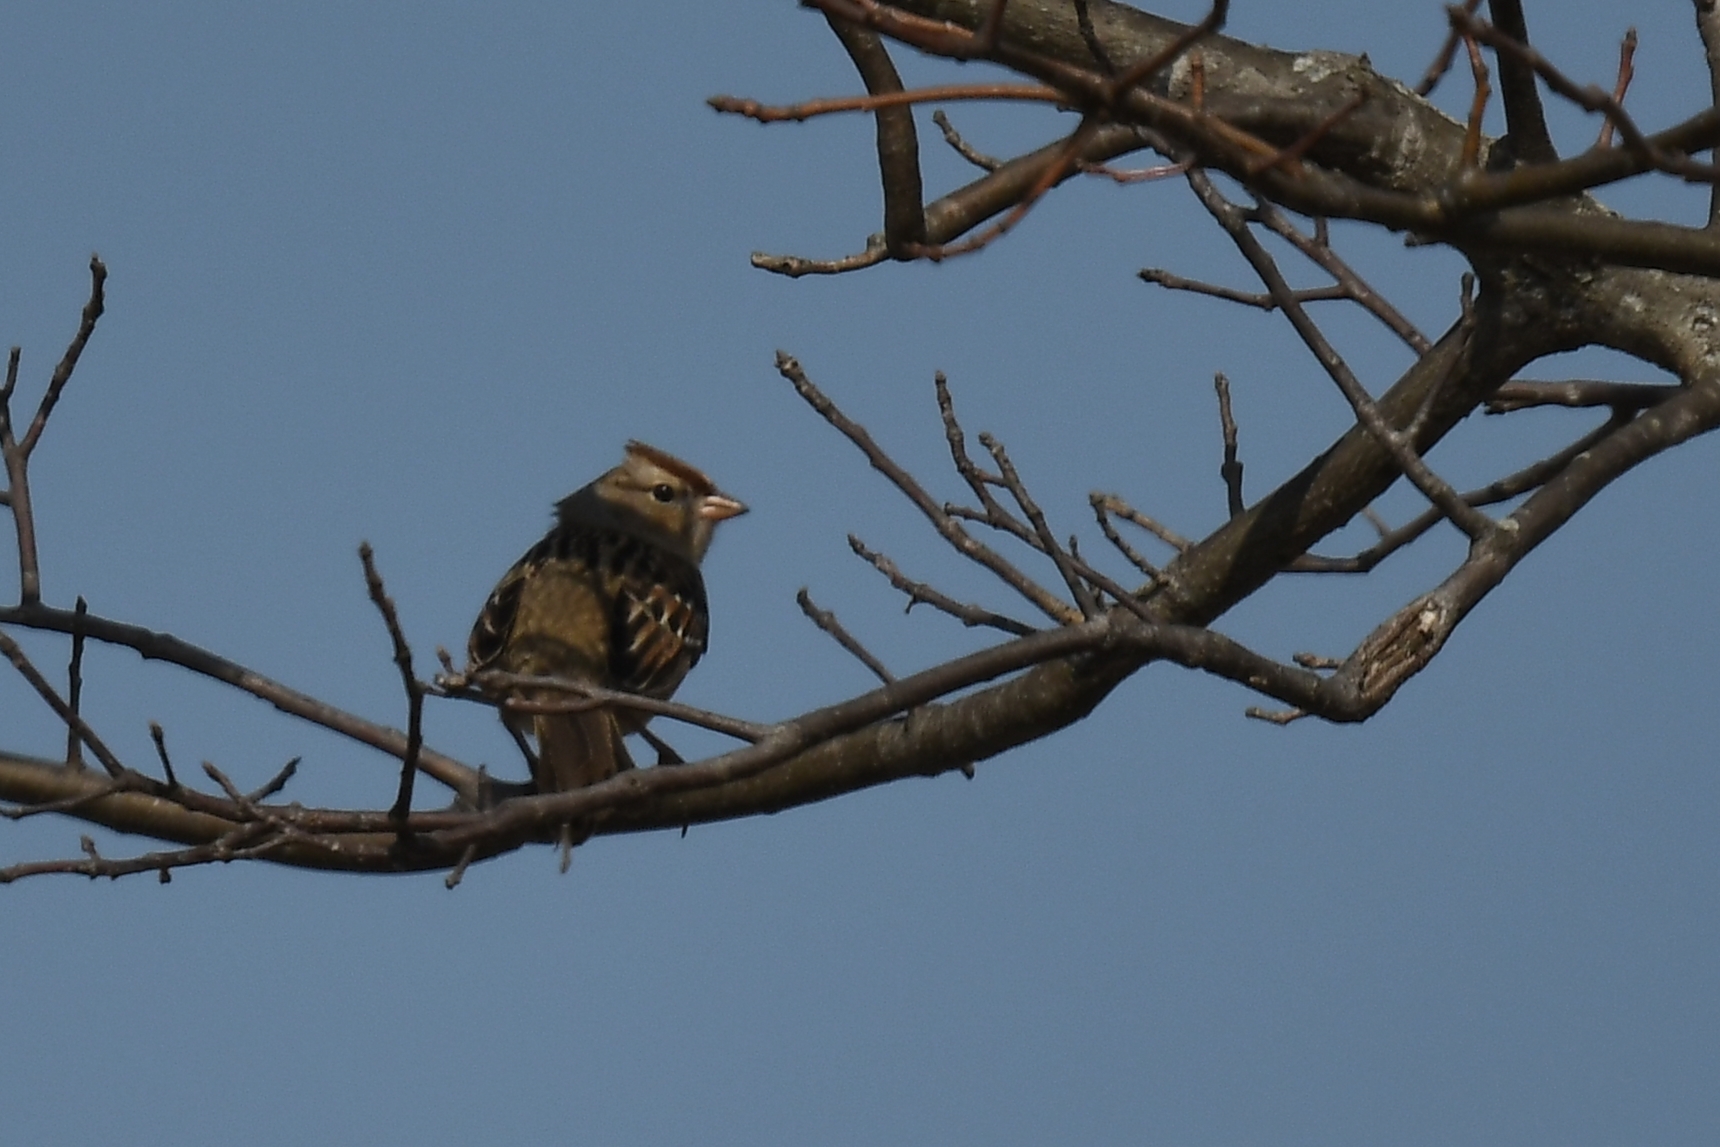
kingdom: Animalia
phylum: Chordata
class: Aves
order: Passeriformes
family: Passerellidae
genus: Zonotrichia
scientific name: Zonotrichia leucophrys
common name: White-crowned sparrow
